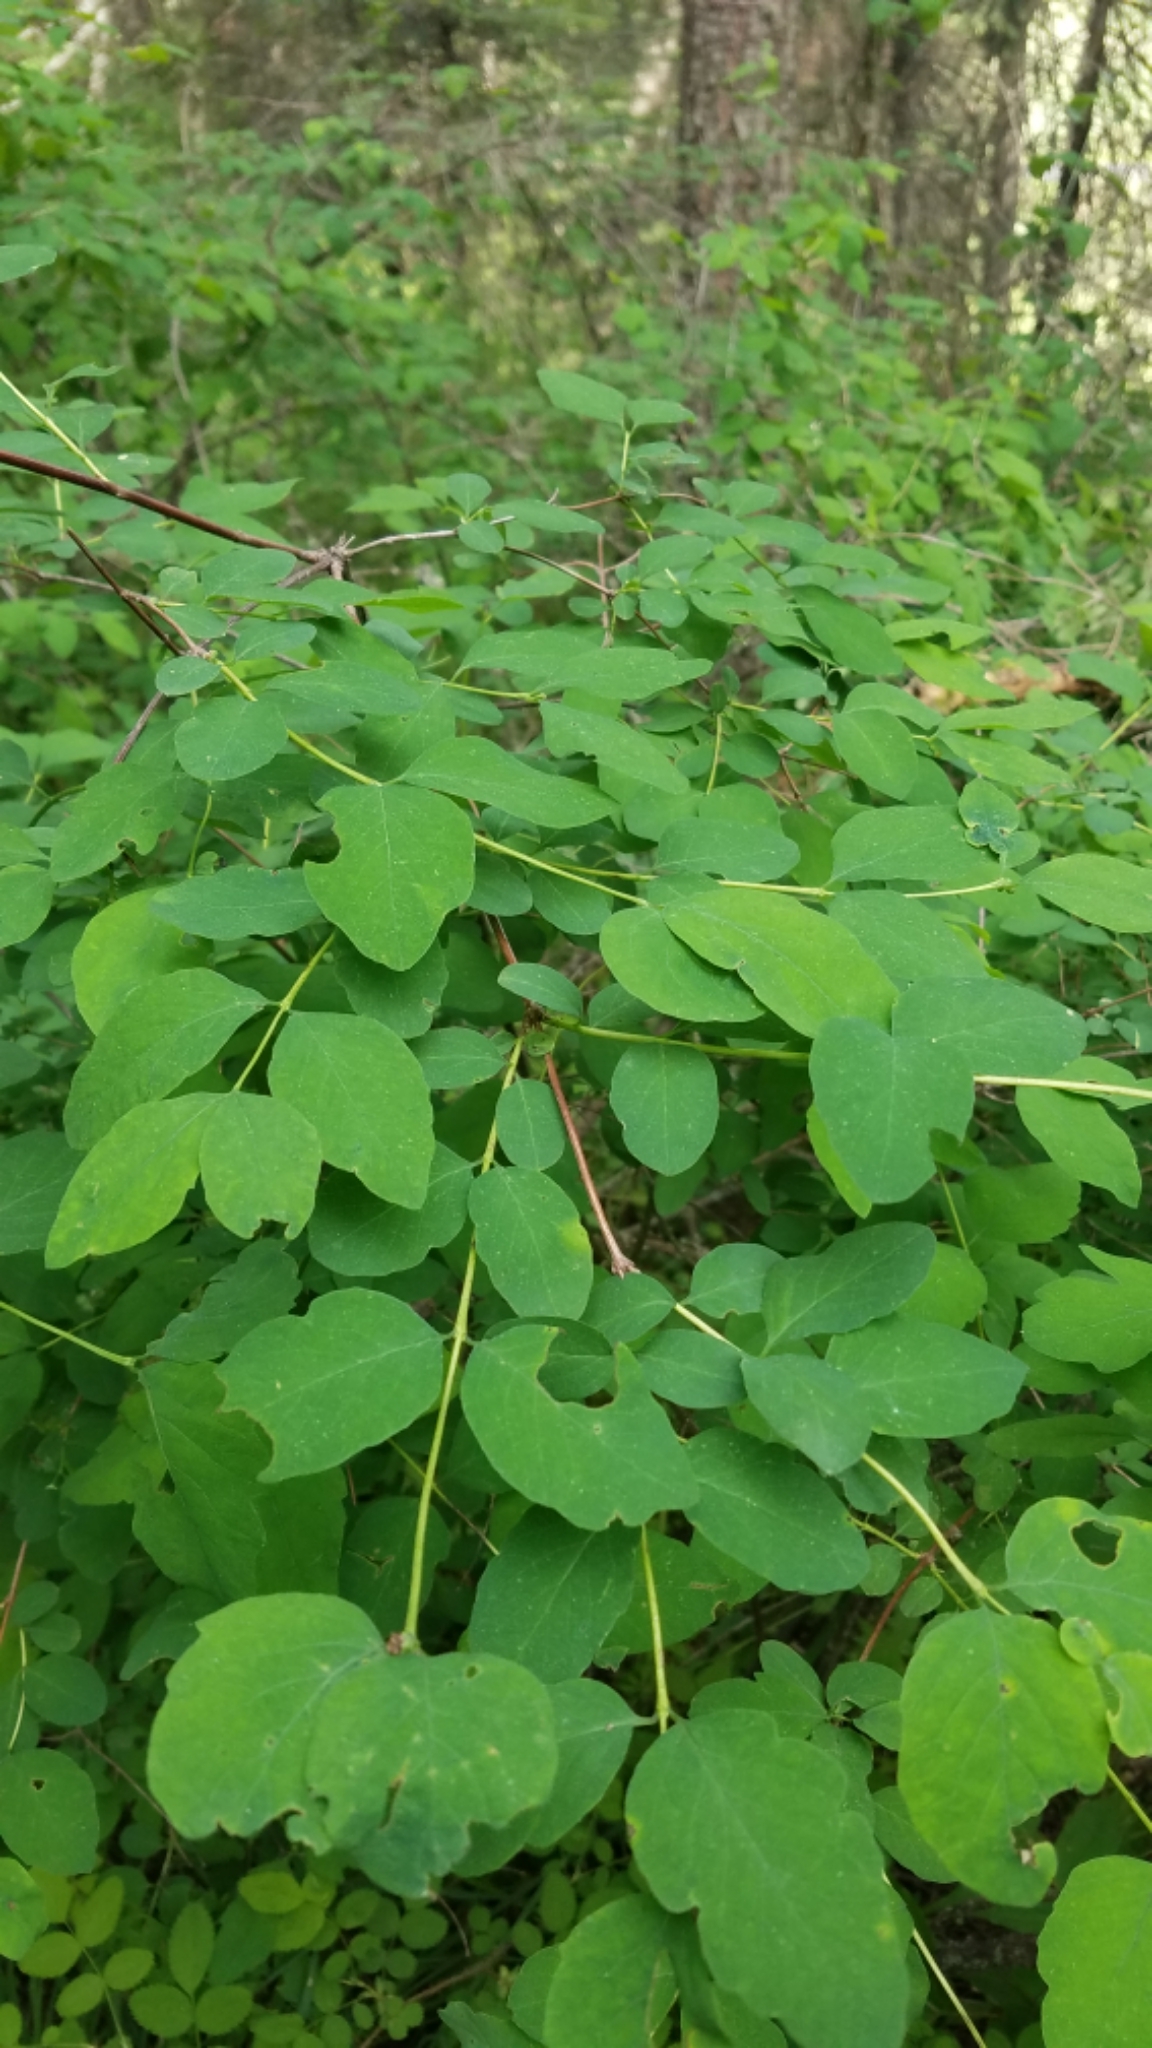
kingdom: Plantae
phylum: Tracheophyta
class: Magnoliopsida
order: Dipsacales
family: Caprifoliaceae
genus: Symphoricarpos
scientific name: Symphoricarpos albus
